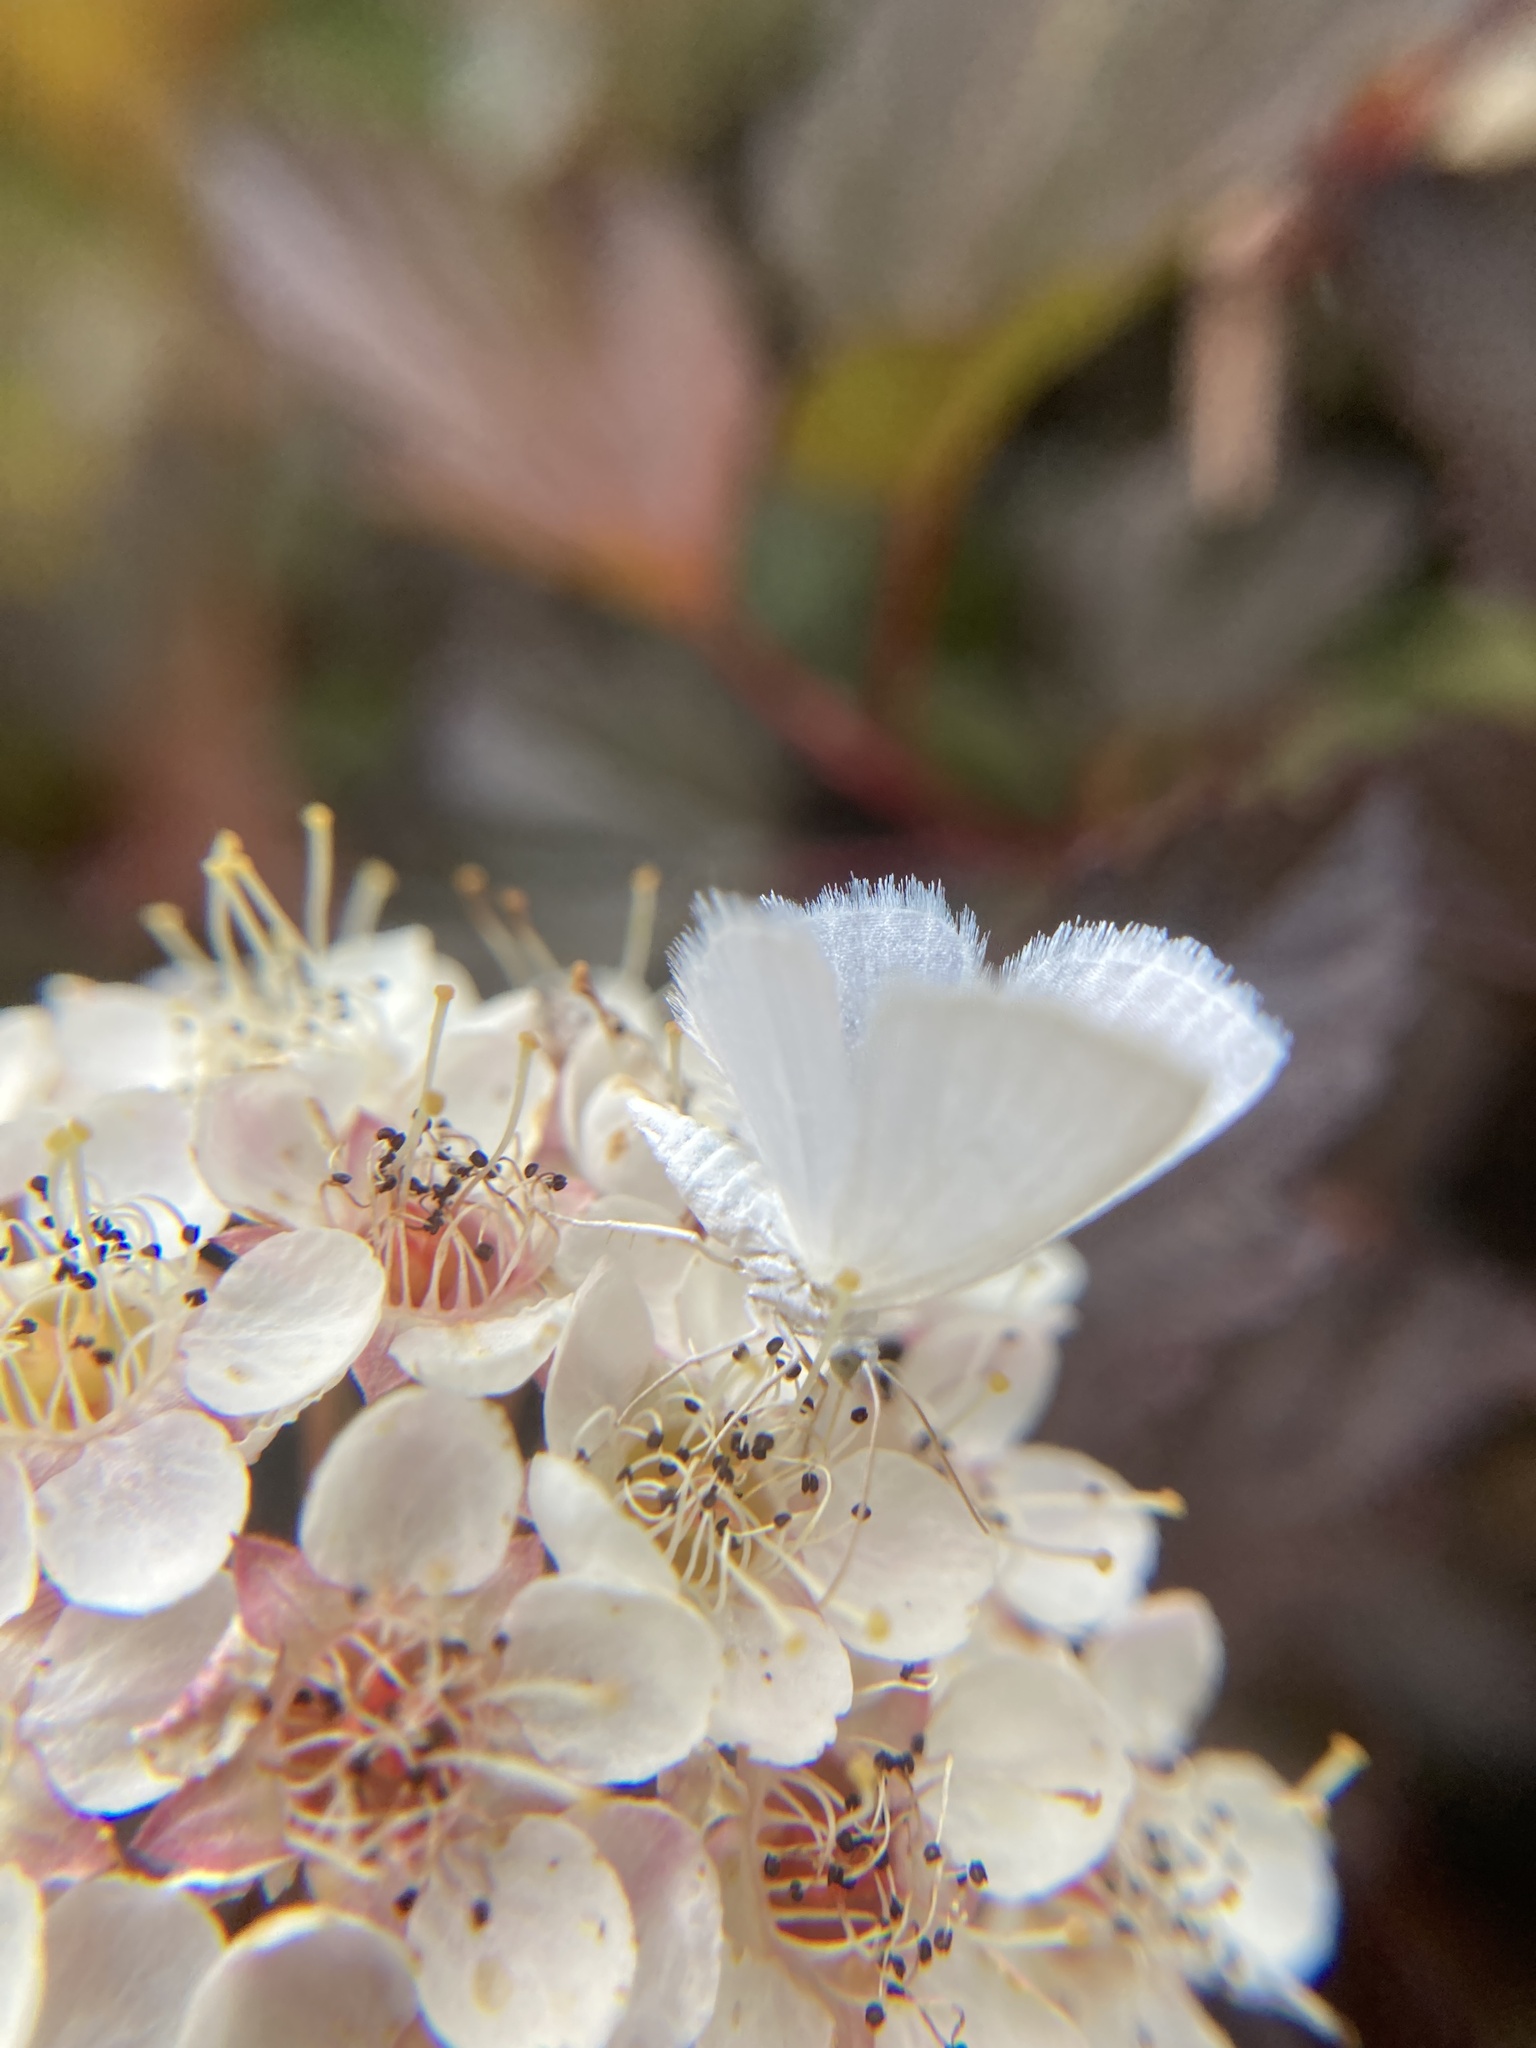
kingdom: Animalia
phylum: Arthropoda
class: Insecta
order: Lepidoptera
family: Geometridae
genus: Lomographa
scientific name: Lomographa vestaliata
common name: White spring moth
